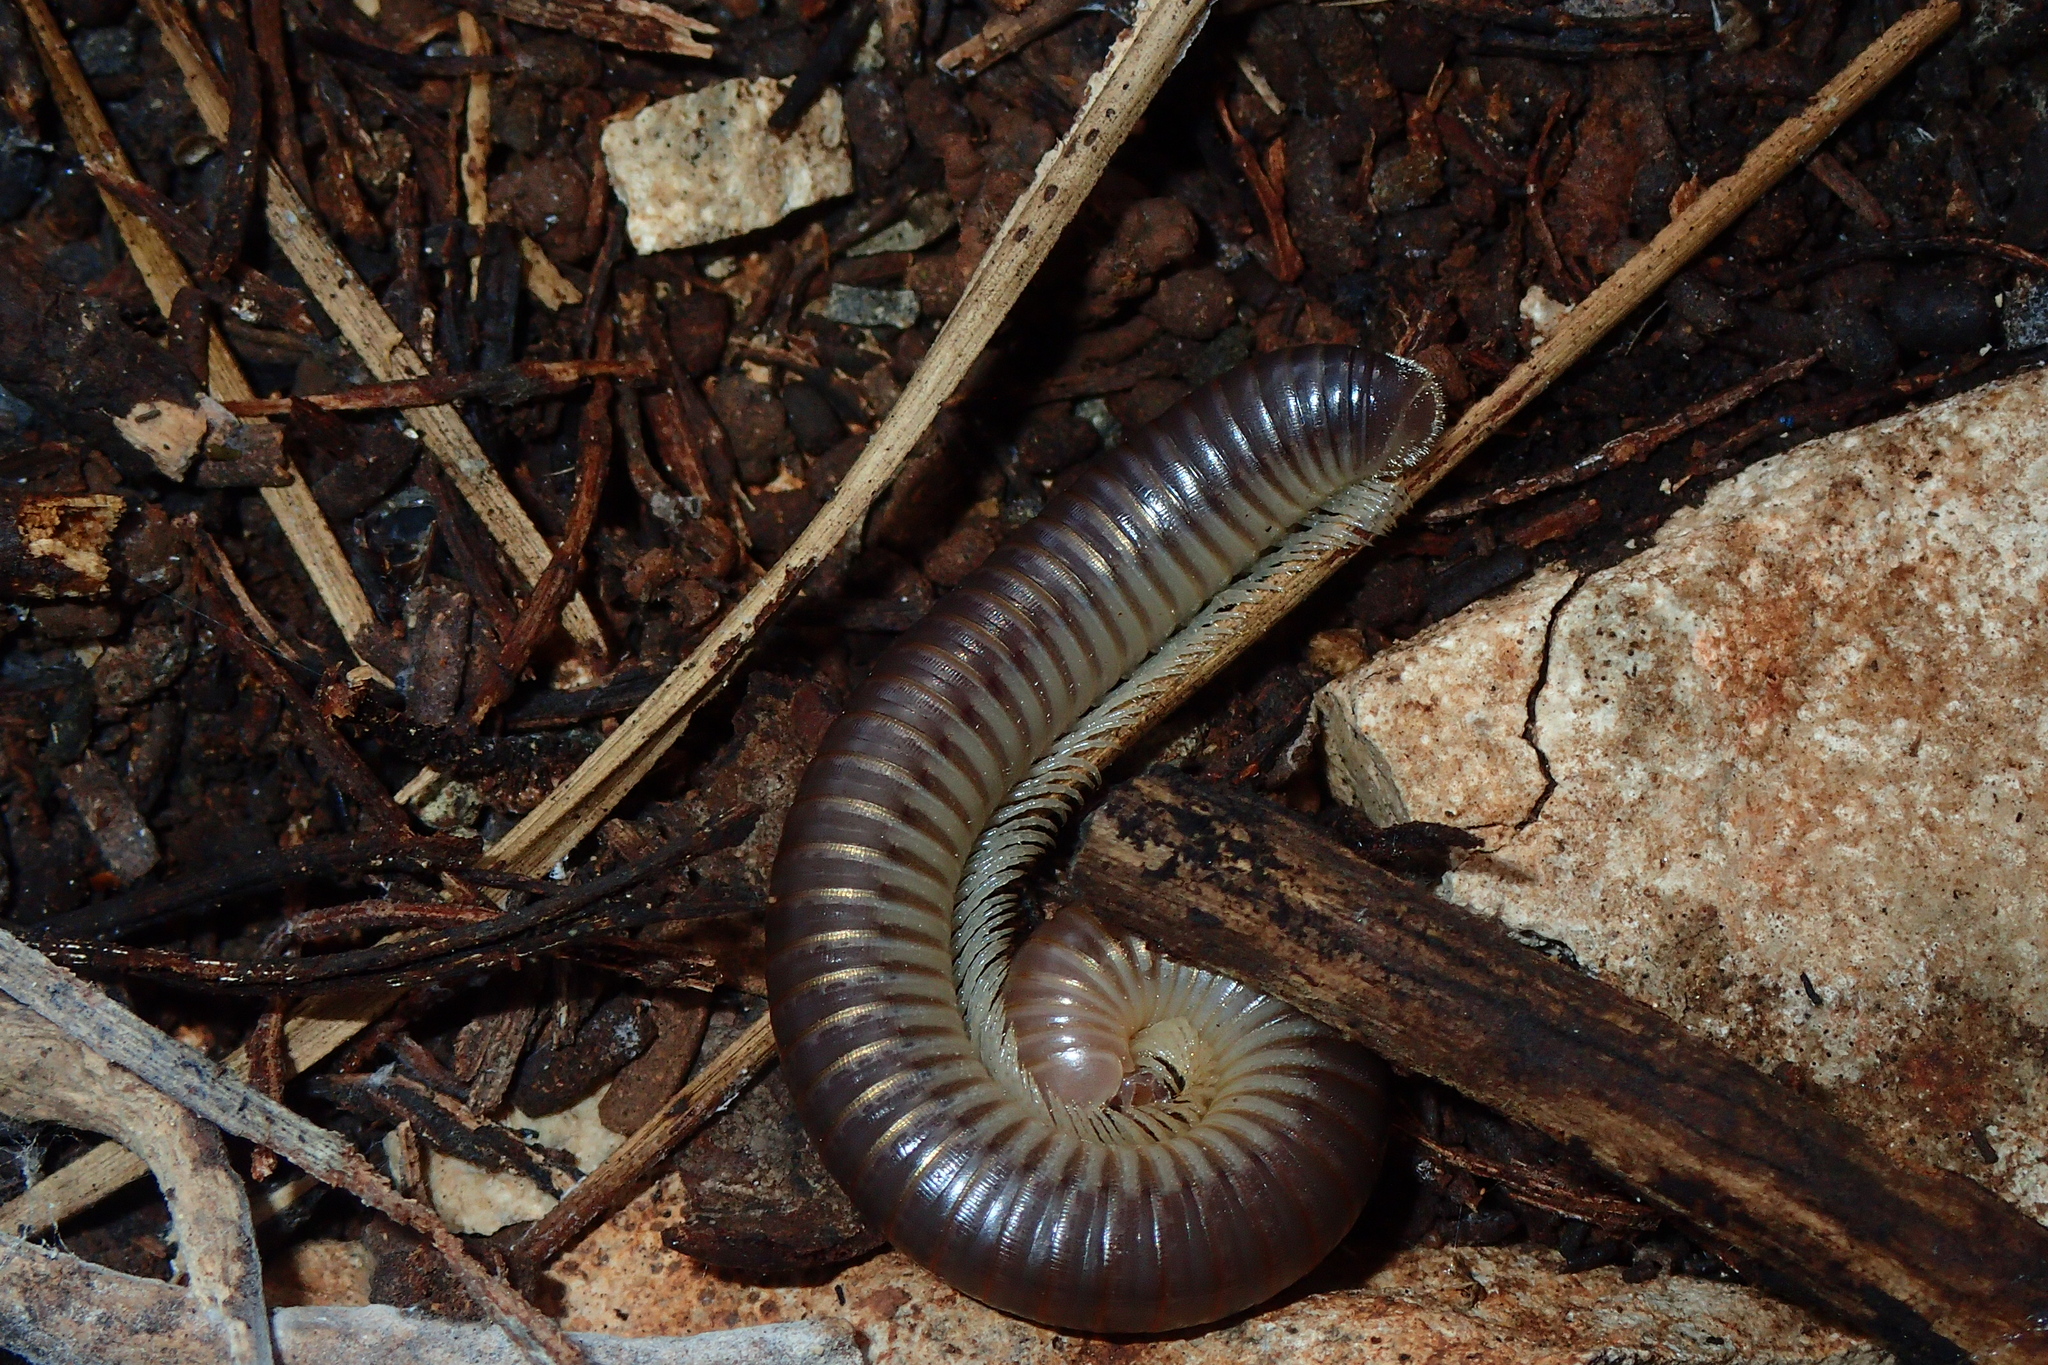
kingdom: Animalia
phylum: Arthropoda
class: Diplopoda
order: Julida
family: Julidae
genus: Pachyiulus
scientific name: Pachyiulus flavipes
